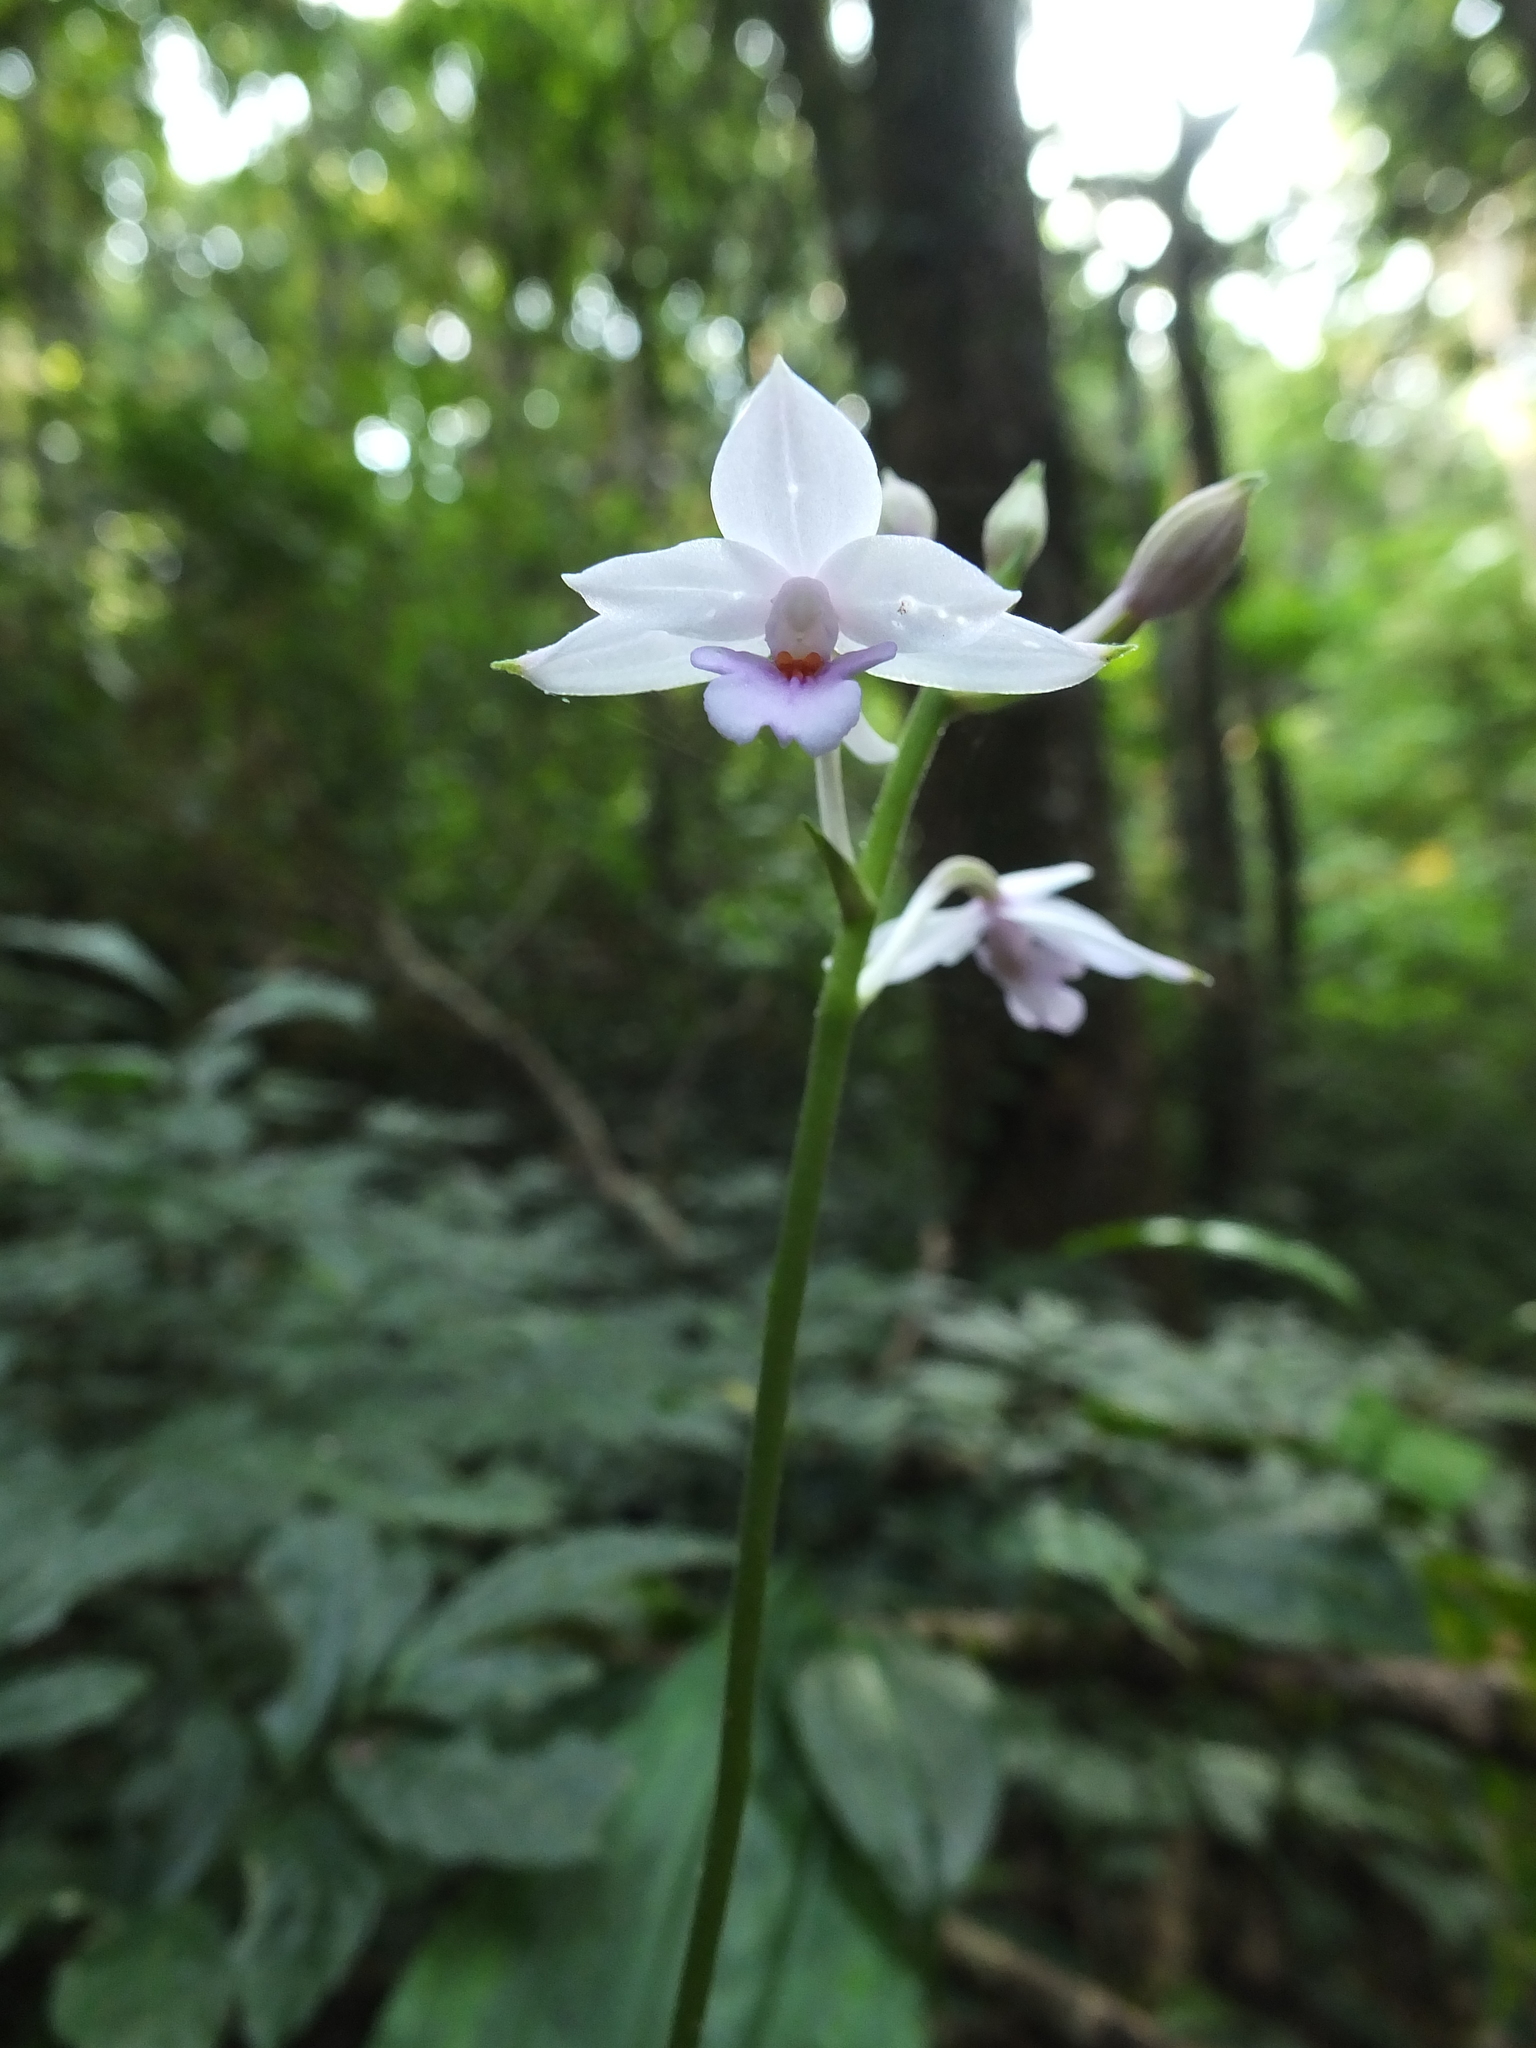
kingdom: Plantae
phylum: Tracheophyta
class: Liliopsida
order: Asparagales
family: Orchidaceae
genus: Calanthe
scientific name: Calanthe masuca
